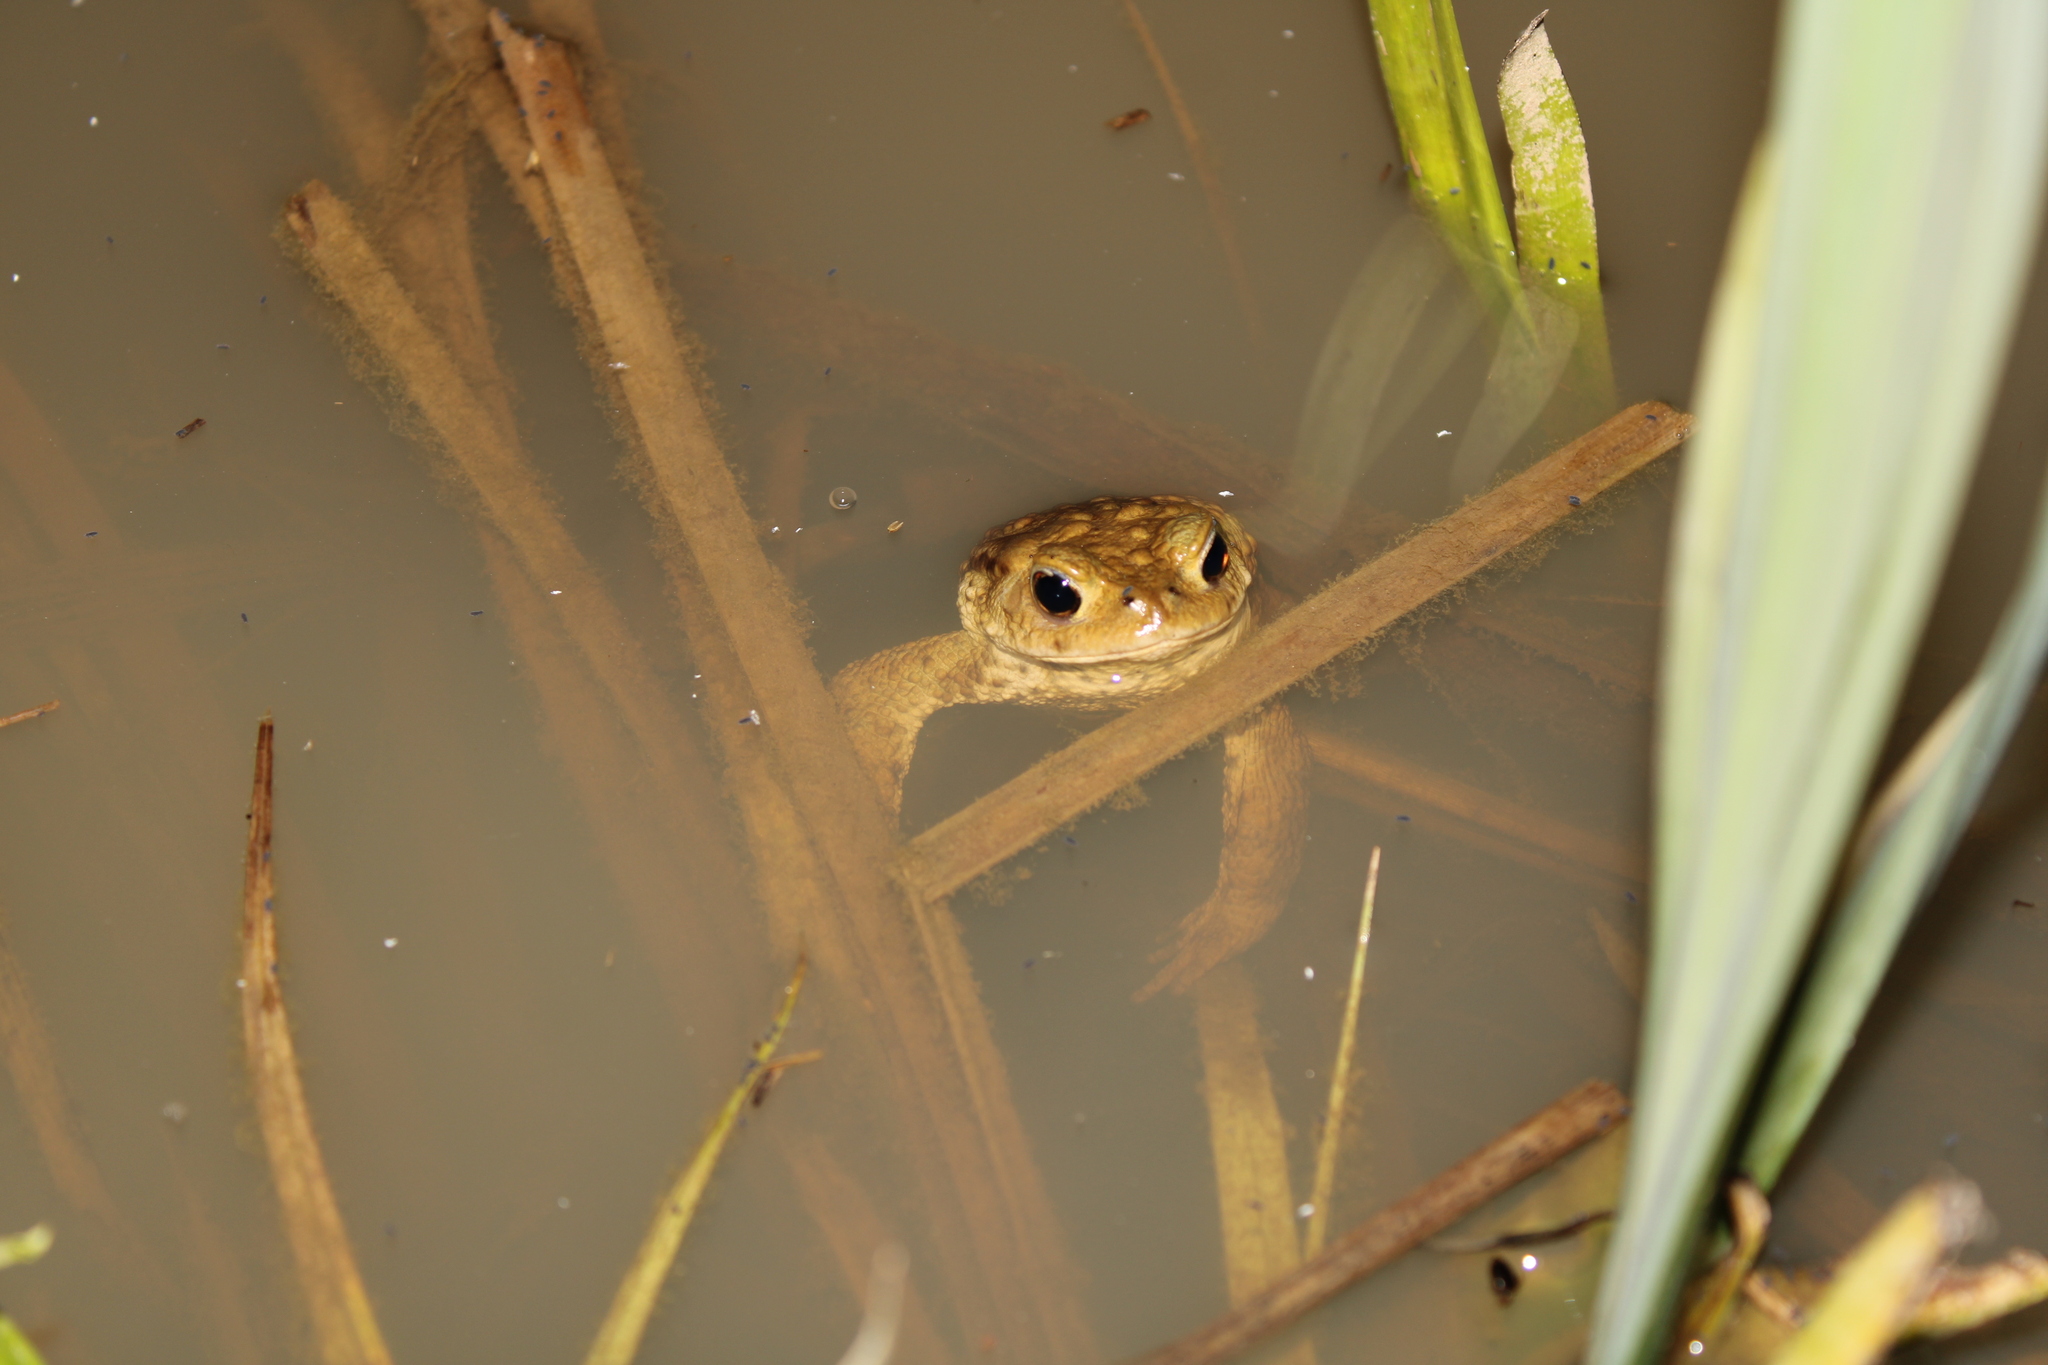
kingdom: Animalia
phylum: Chordata
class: Amphibia
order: Anura
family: Bufonidae
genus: Bufo
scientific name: Bufo bufo
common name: Common toad
